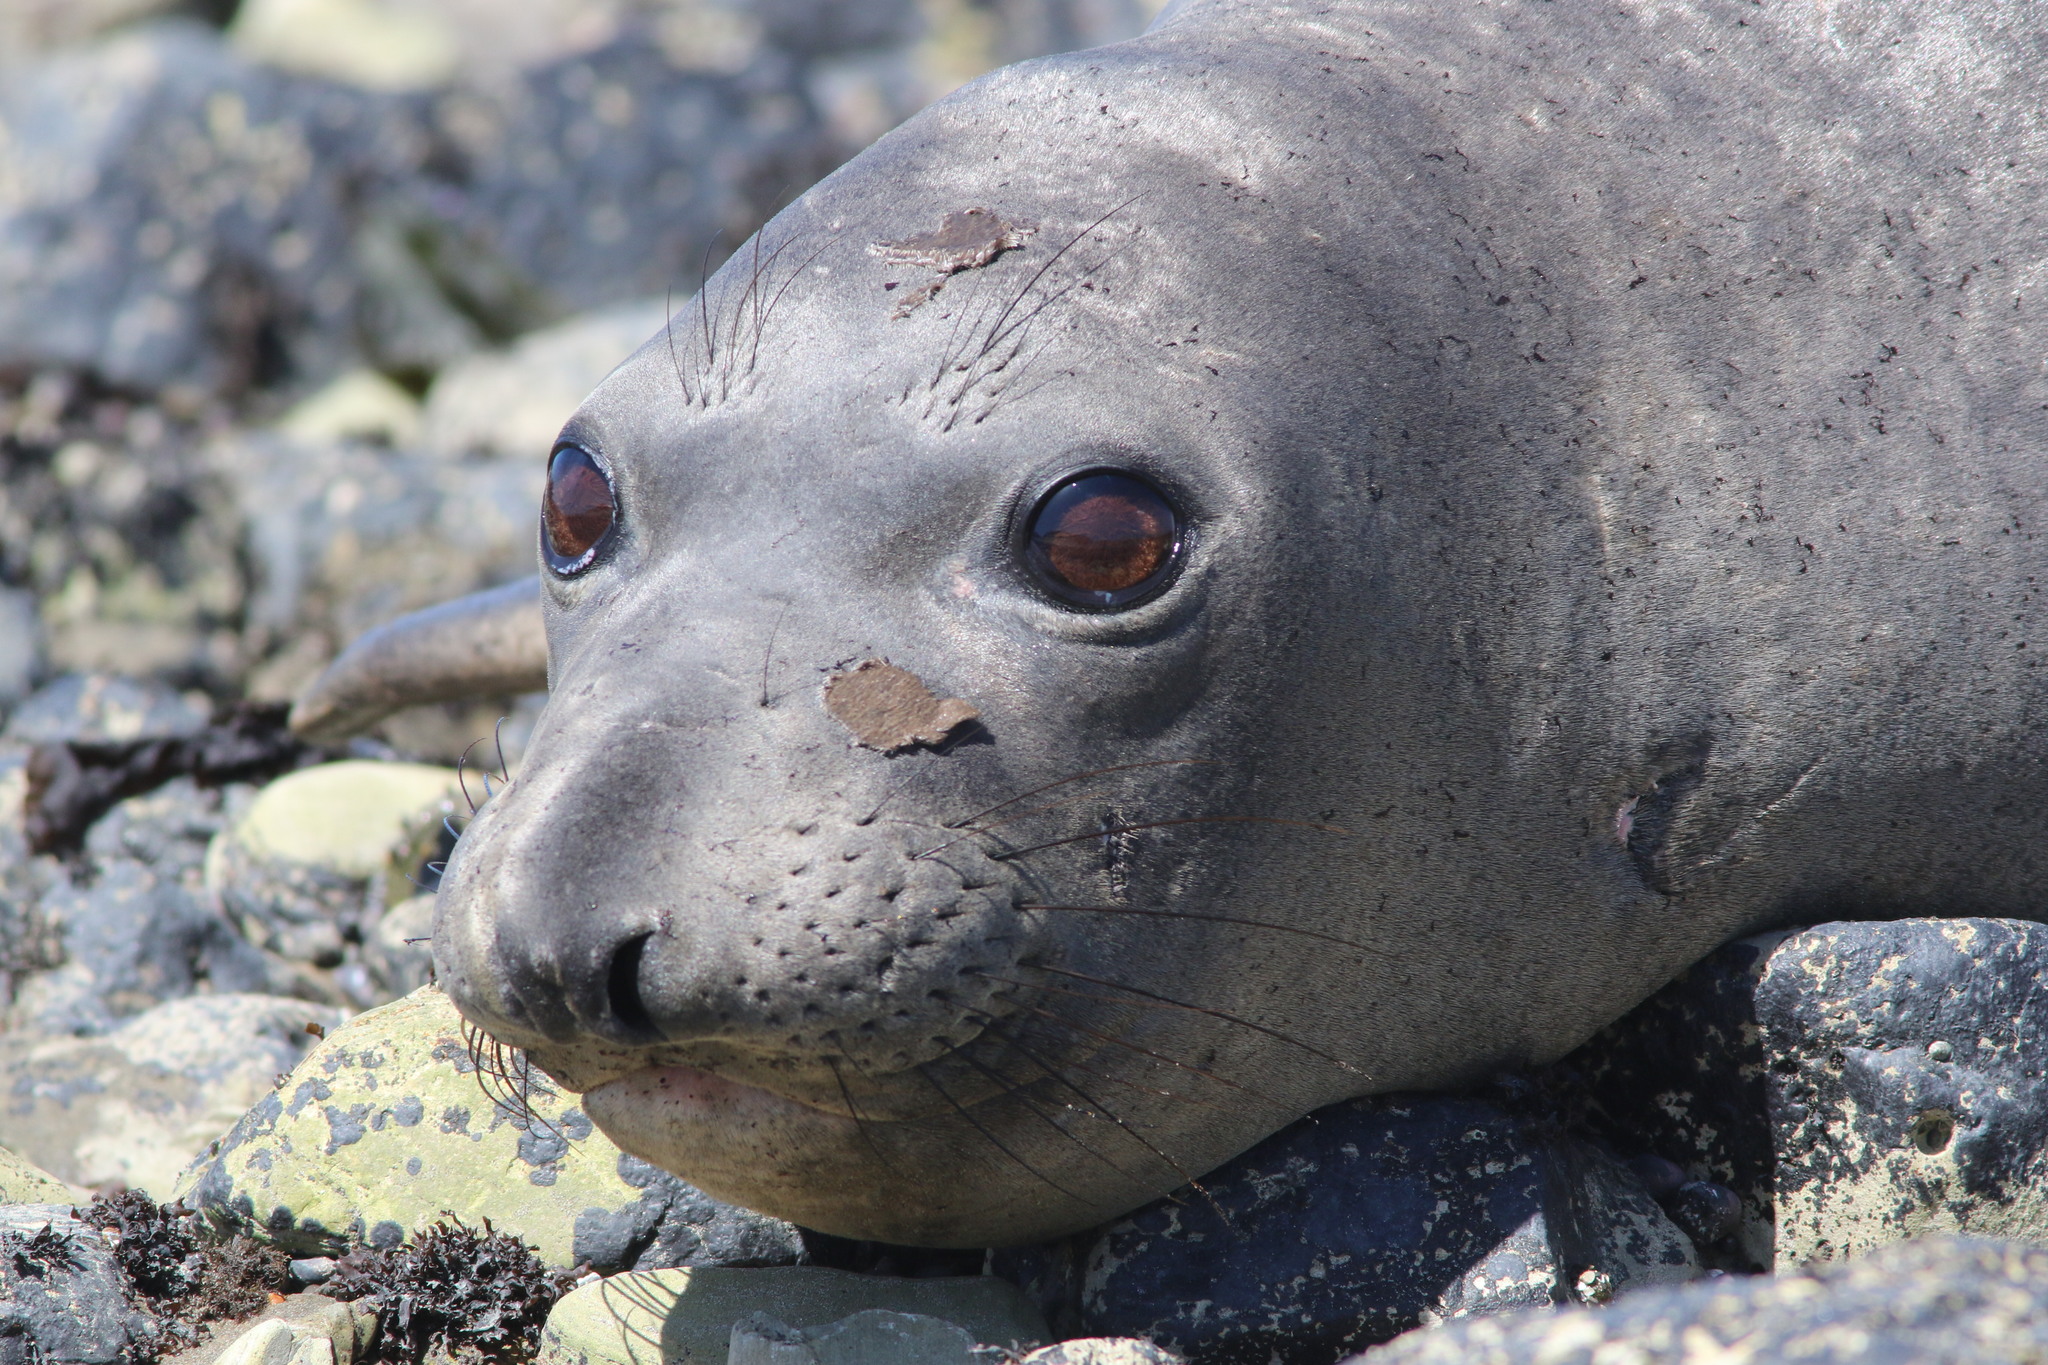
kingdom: Animalia
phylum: Chordata
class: Mammalia
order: Carnivora
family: Phocidae
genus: Mirounga
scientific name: Mirounga angustirostris
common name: Northern elephant seal
